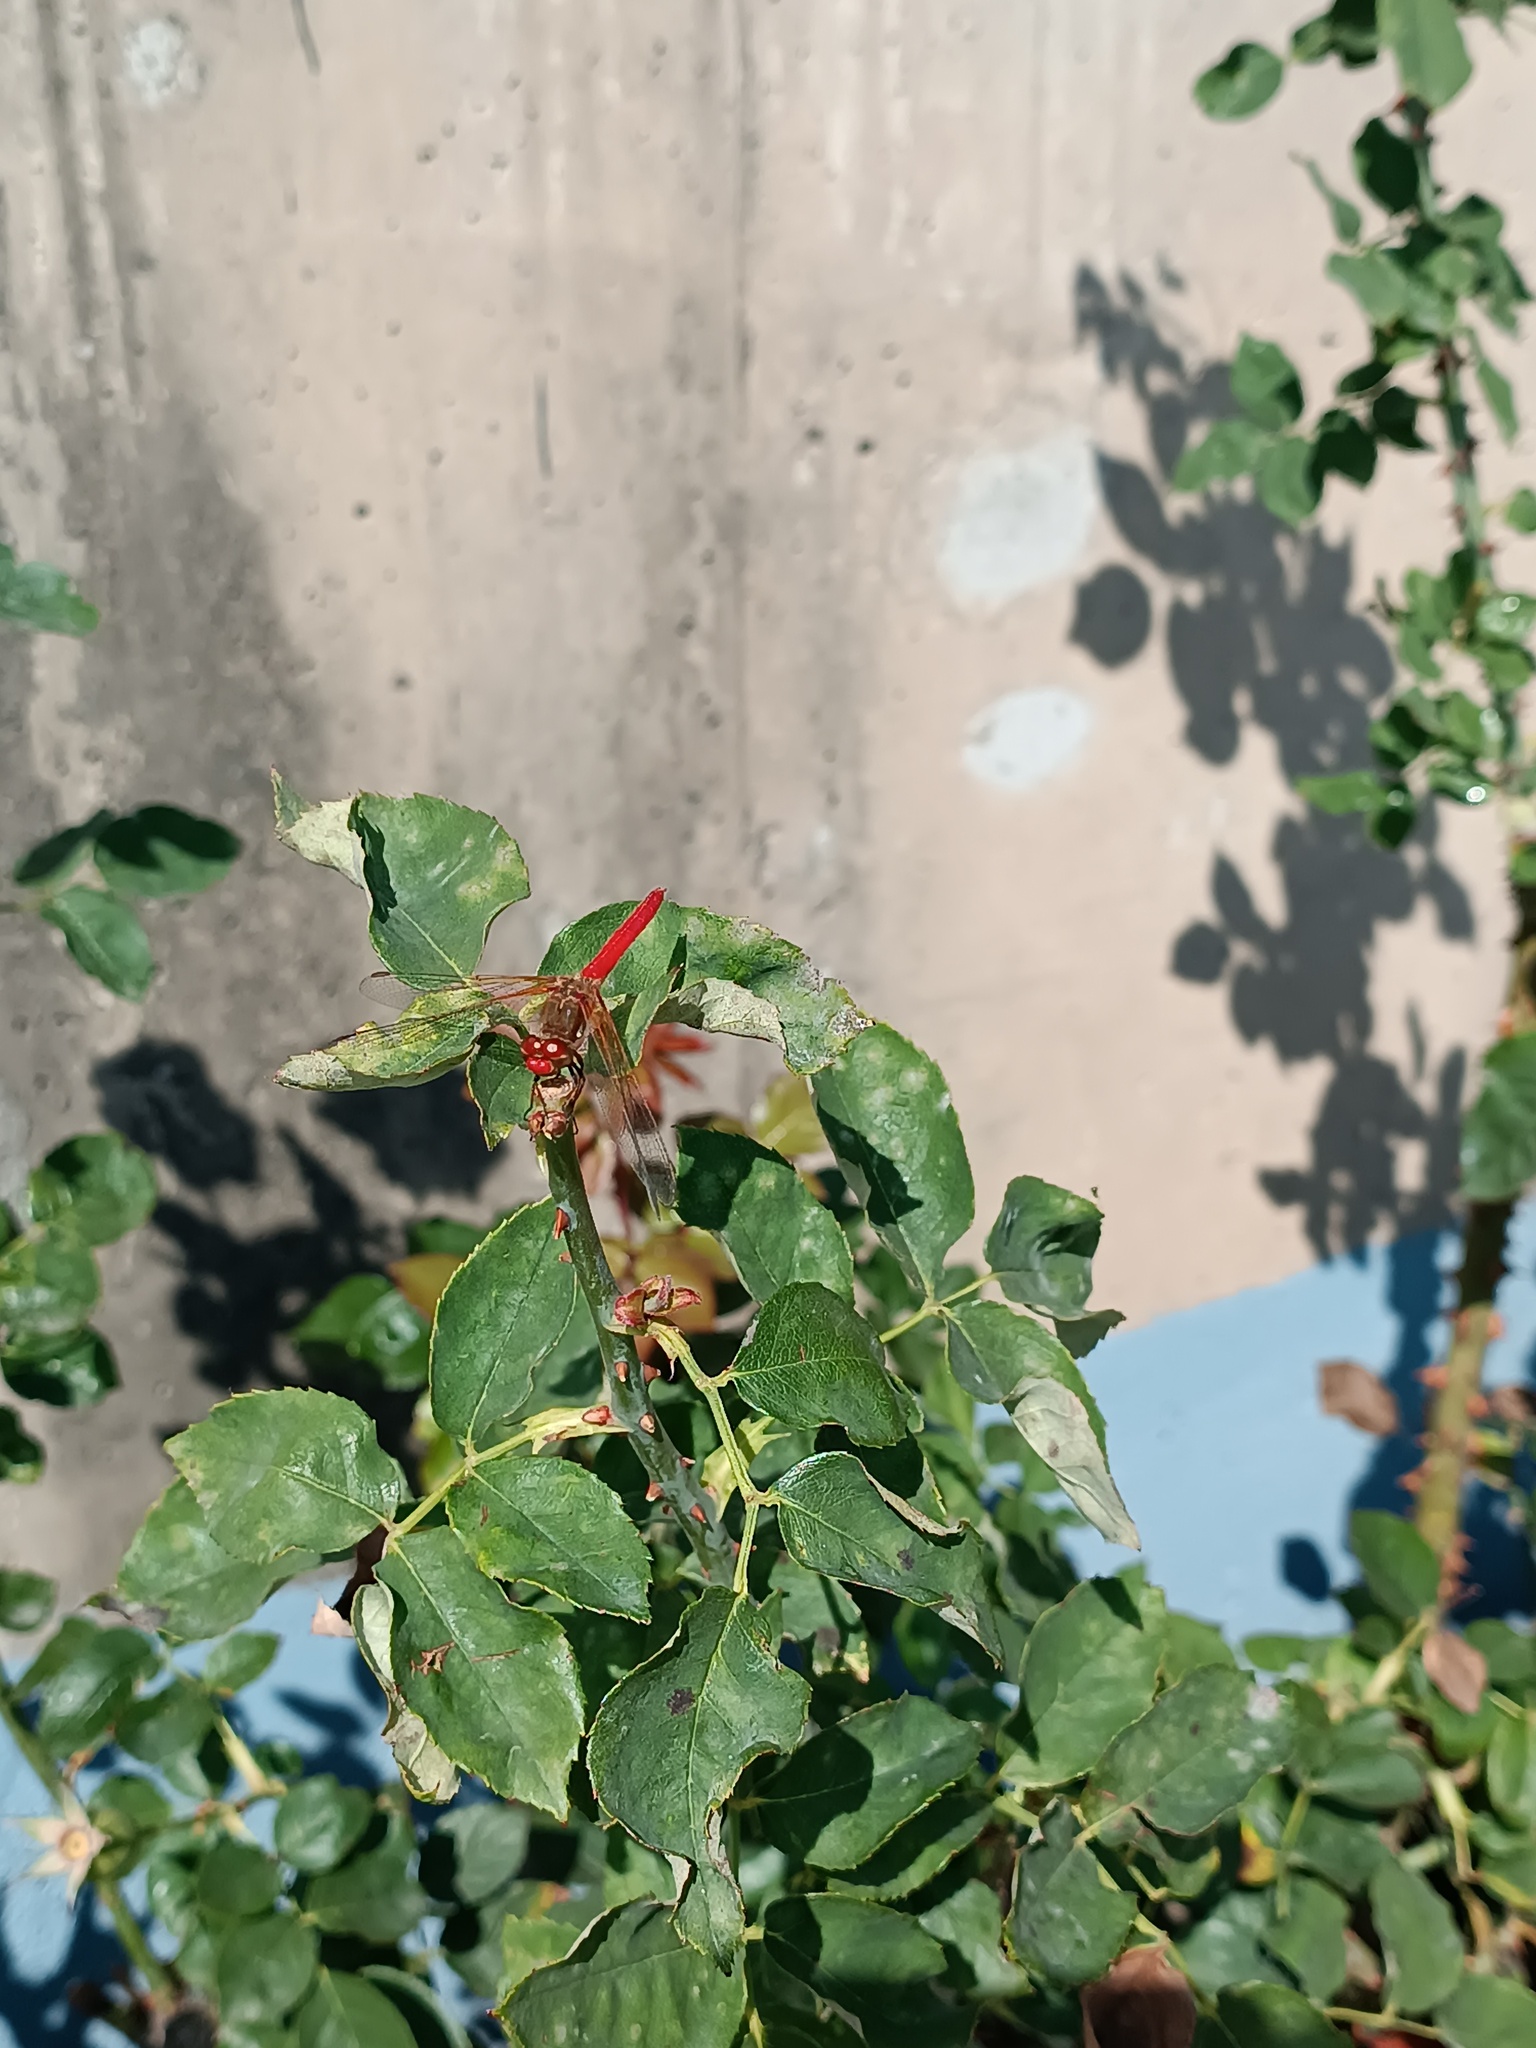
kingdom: Animalia
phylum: Arthropoda
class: Insecta
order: Odonata
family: Libellulidae
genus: Sympetrum
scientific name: Sympetrum illotum
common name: Cardinal meadowhawk
